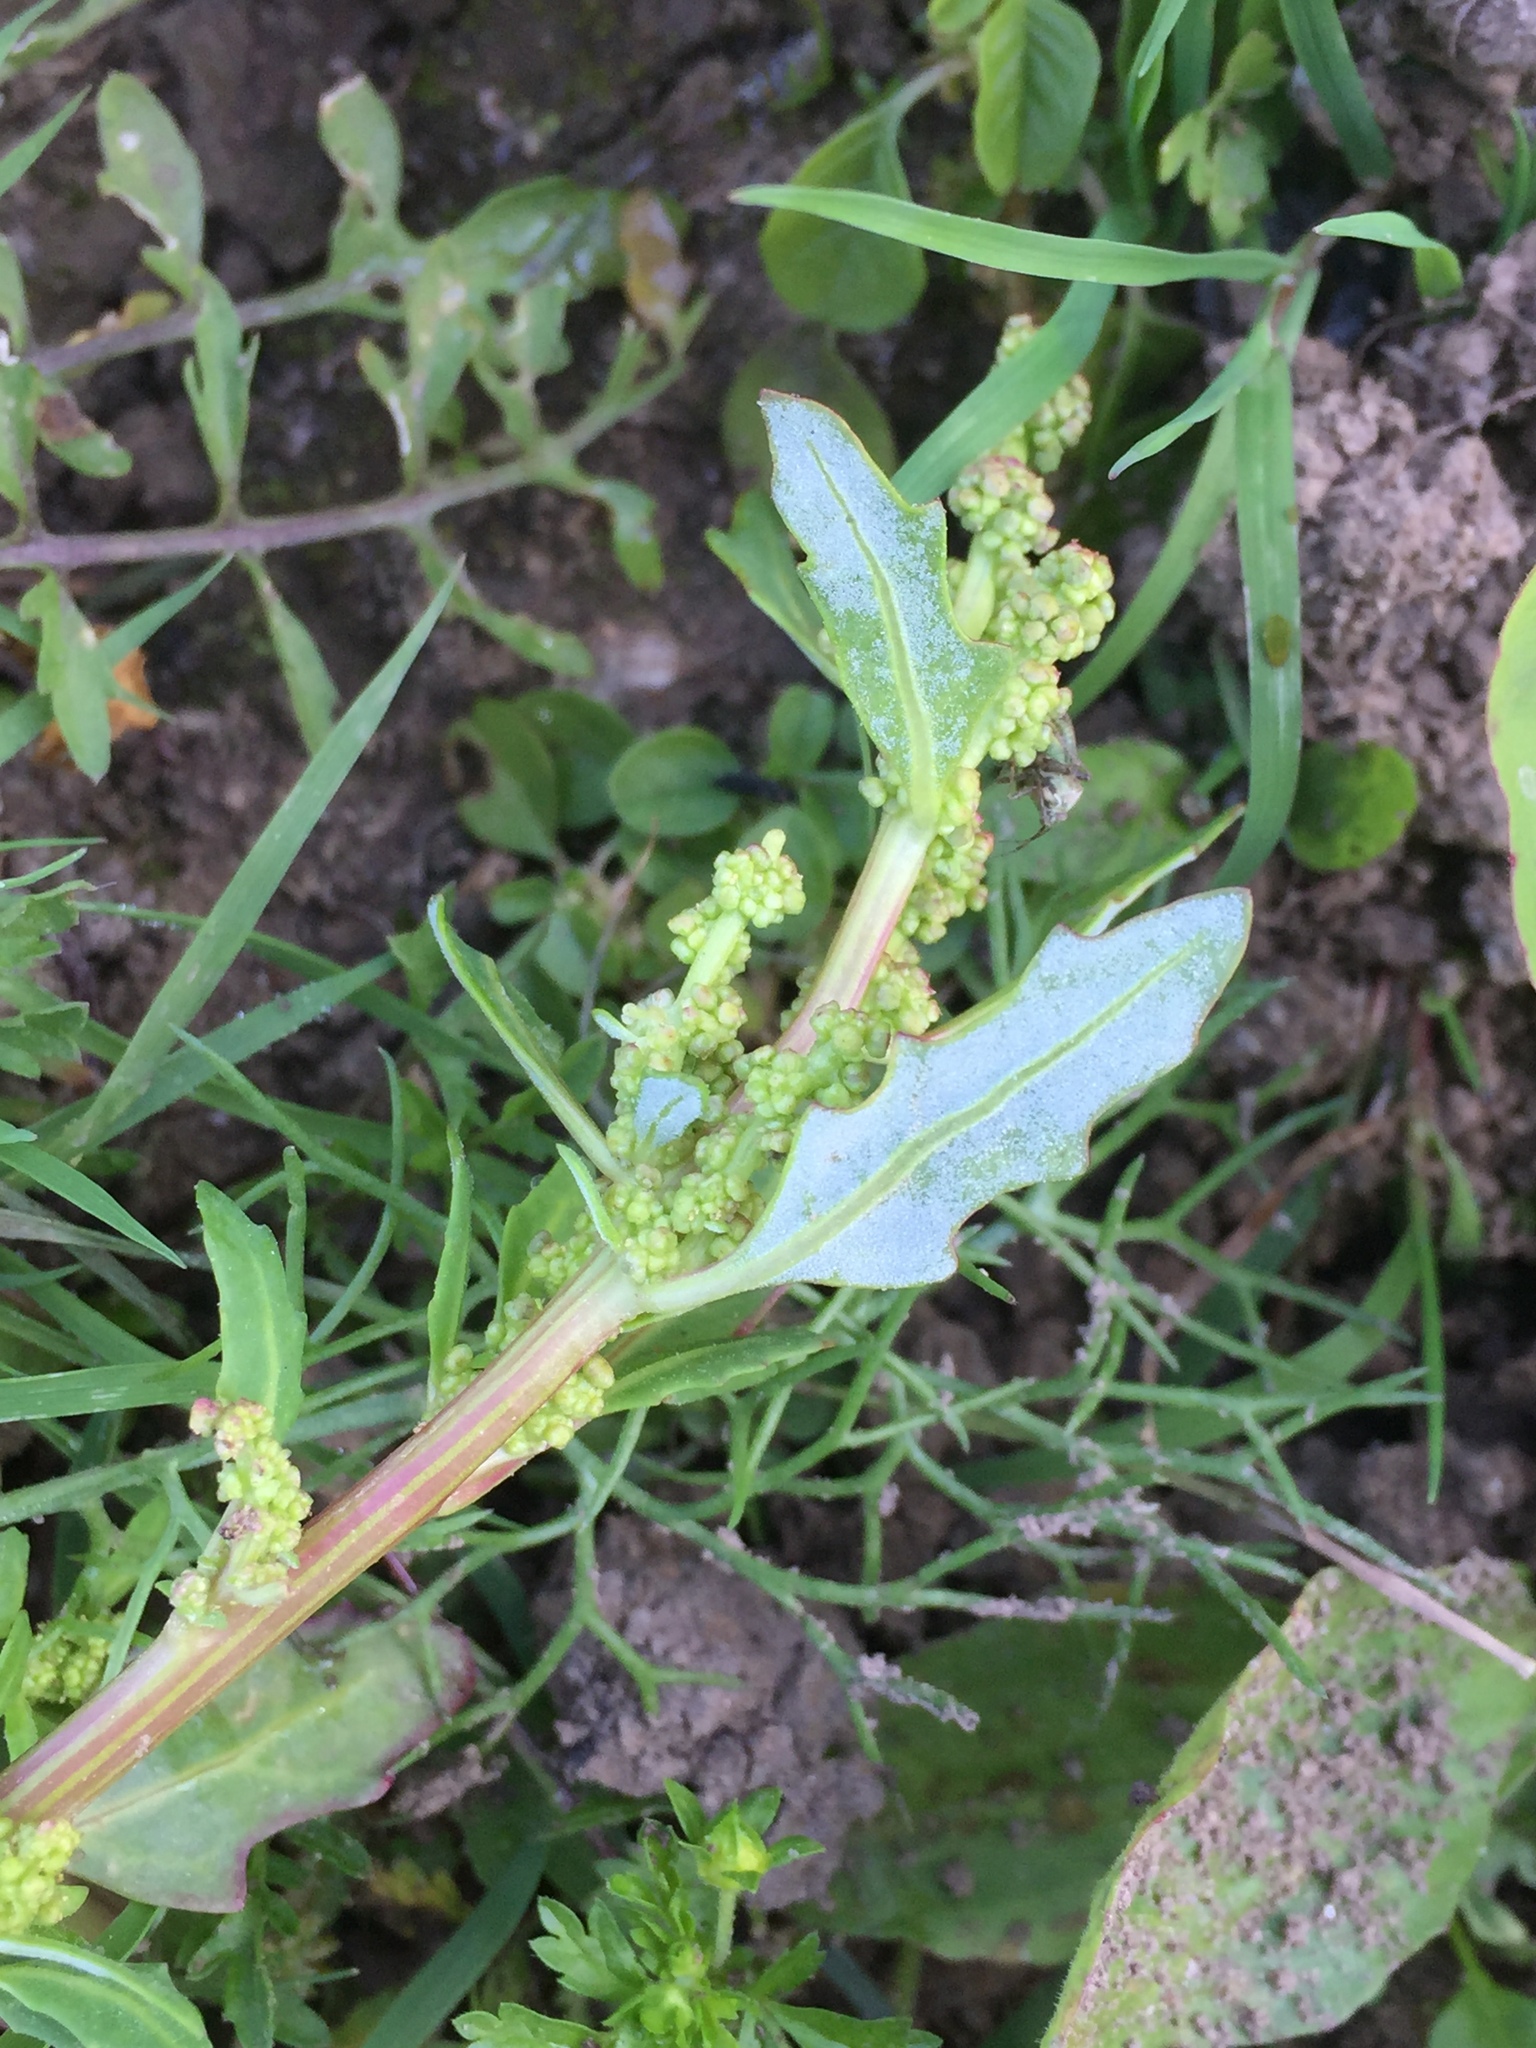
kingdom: Plantae
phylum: Tracheophyta
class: Magnoliopsida
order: Caryophyllales
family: Amaranthaceae
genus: Oxybasis
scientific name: Oxybasis glauca
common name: Glaucous goosefoot
